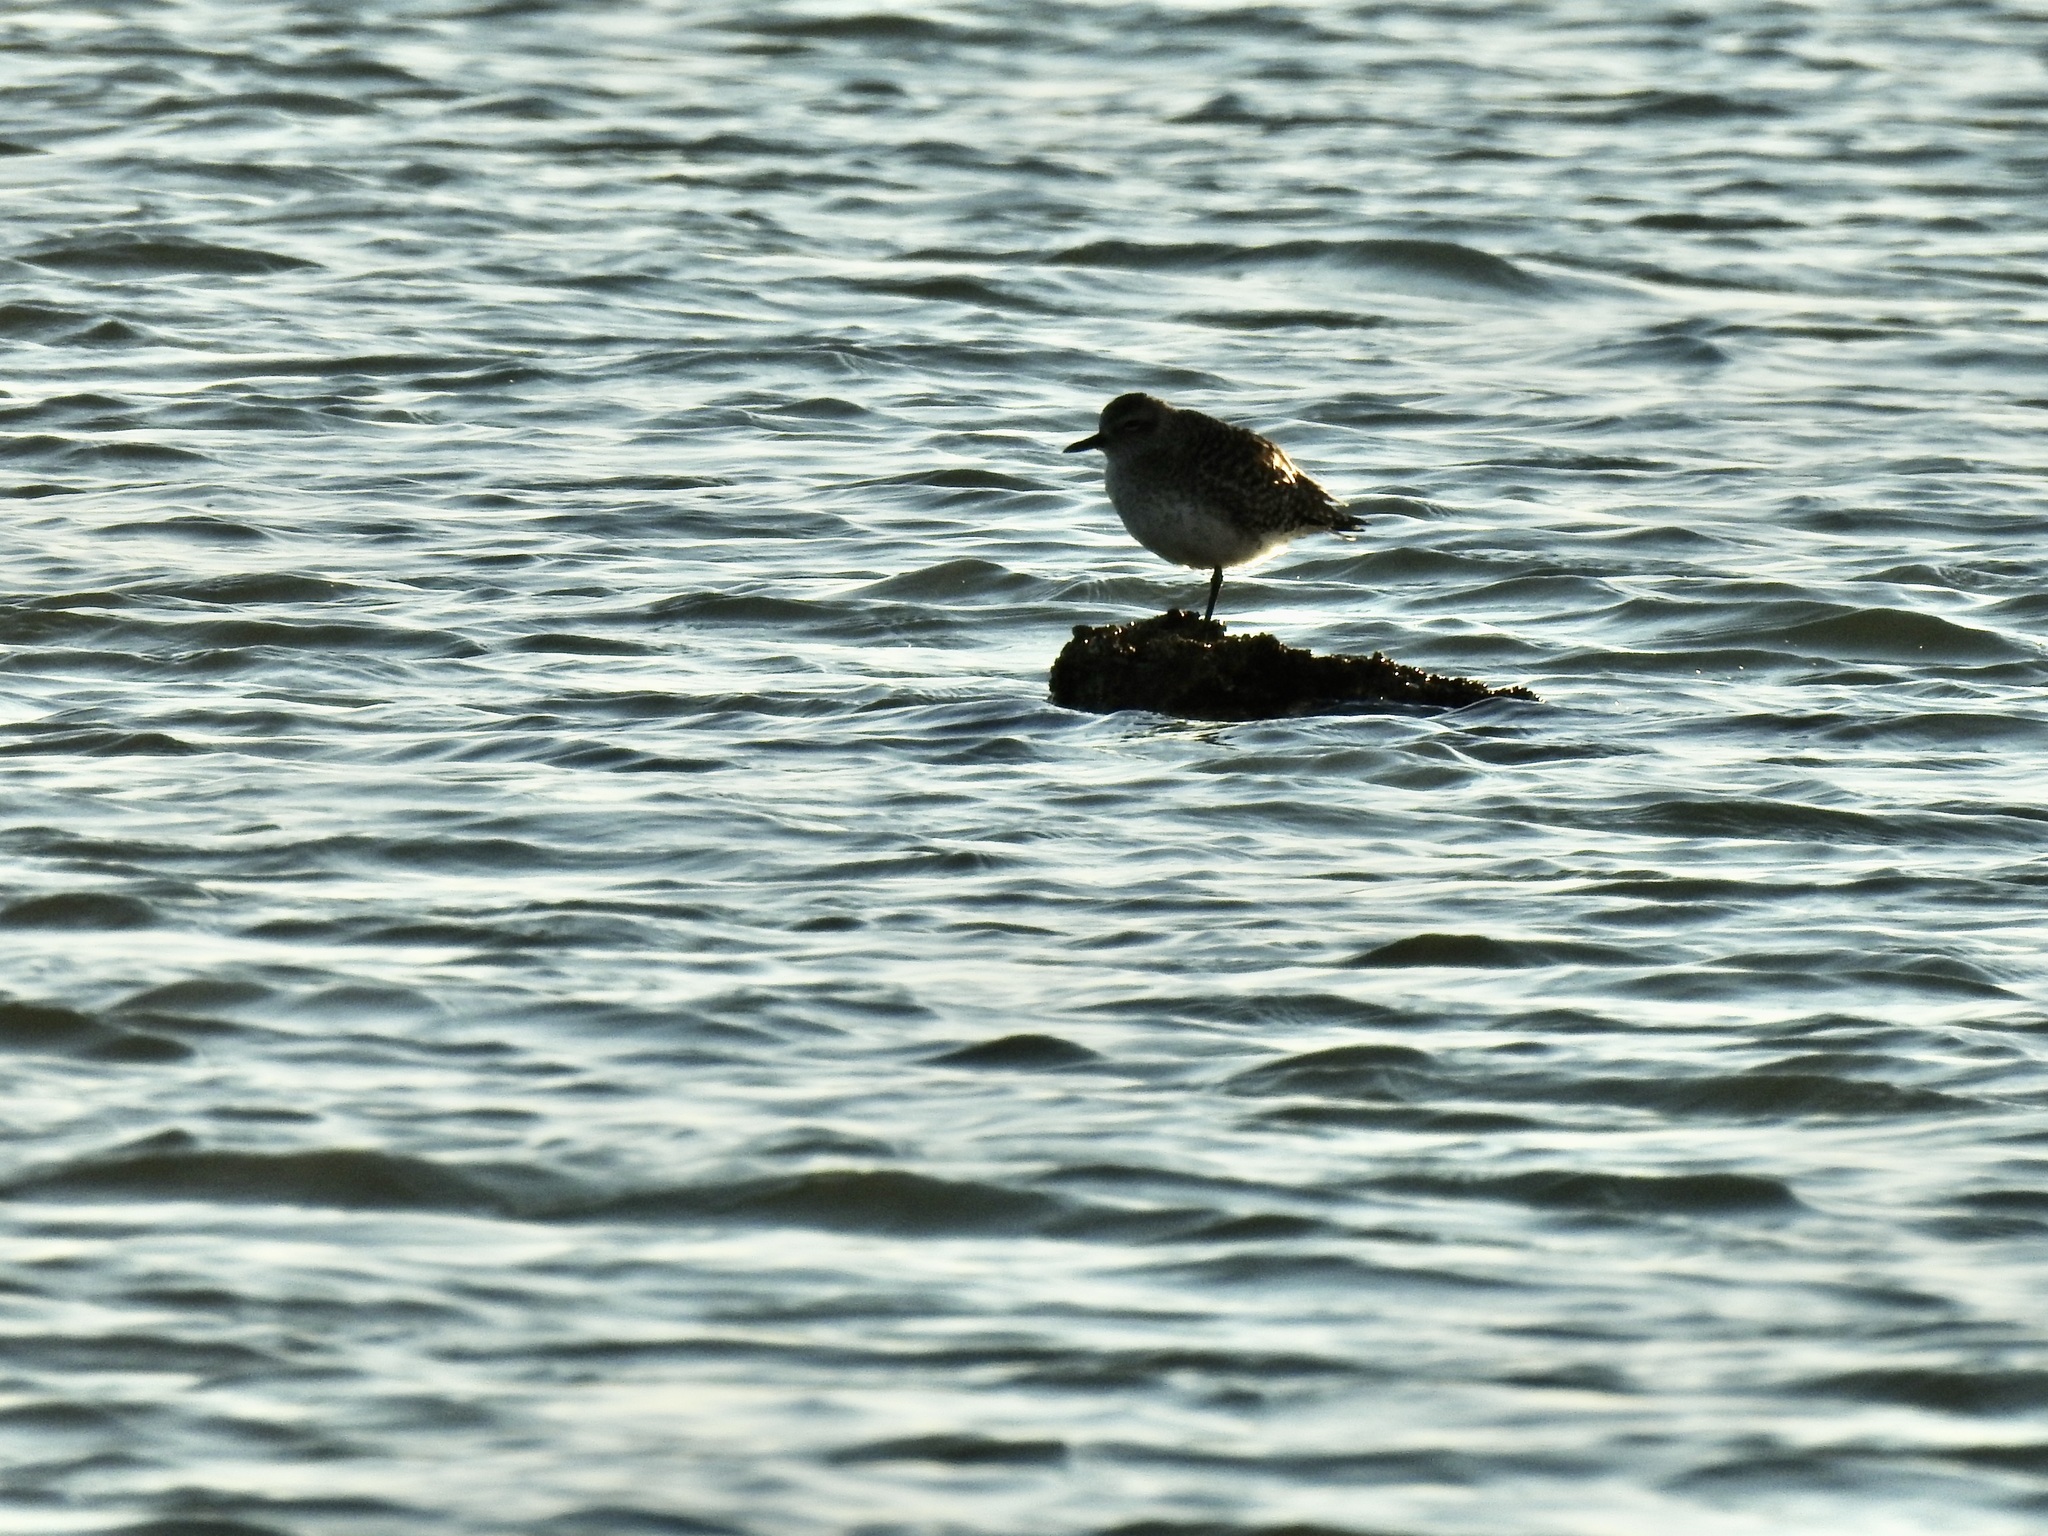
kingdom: Animalia
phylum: Chordata
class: Aves
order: Charadriiformes
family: Charadriidae
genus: Pluvialis
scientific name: Pluvialis squatarola
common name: Grey plover
